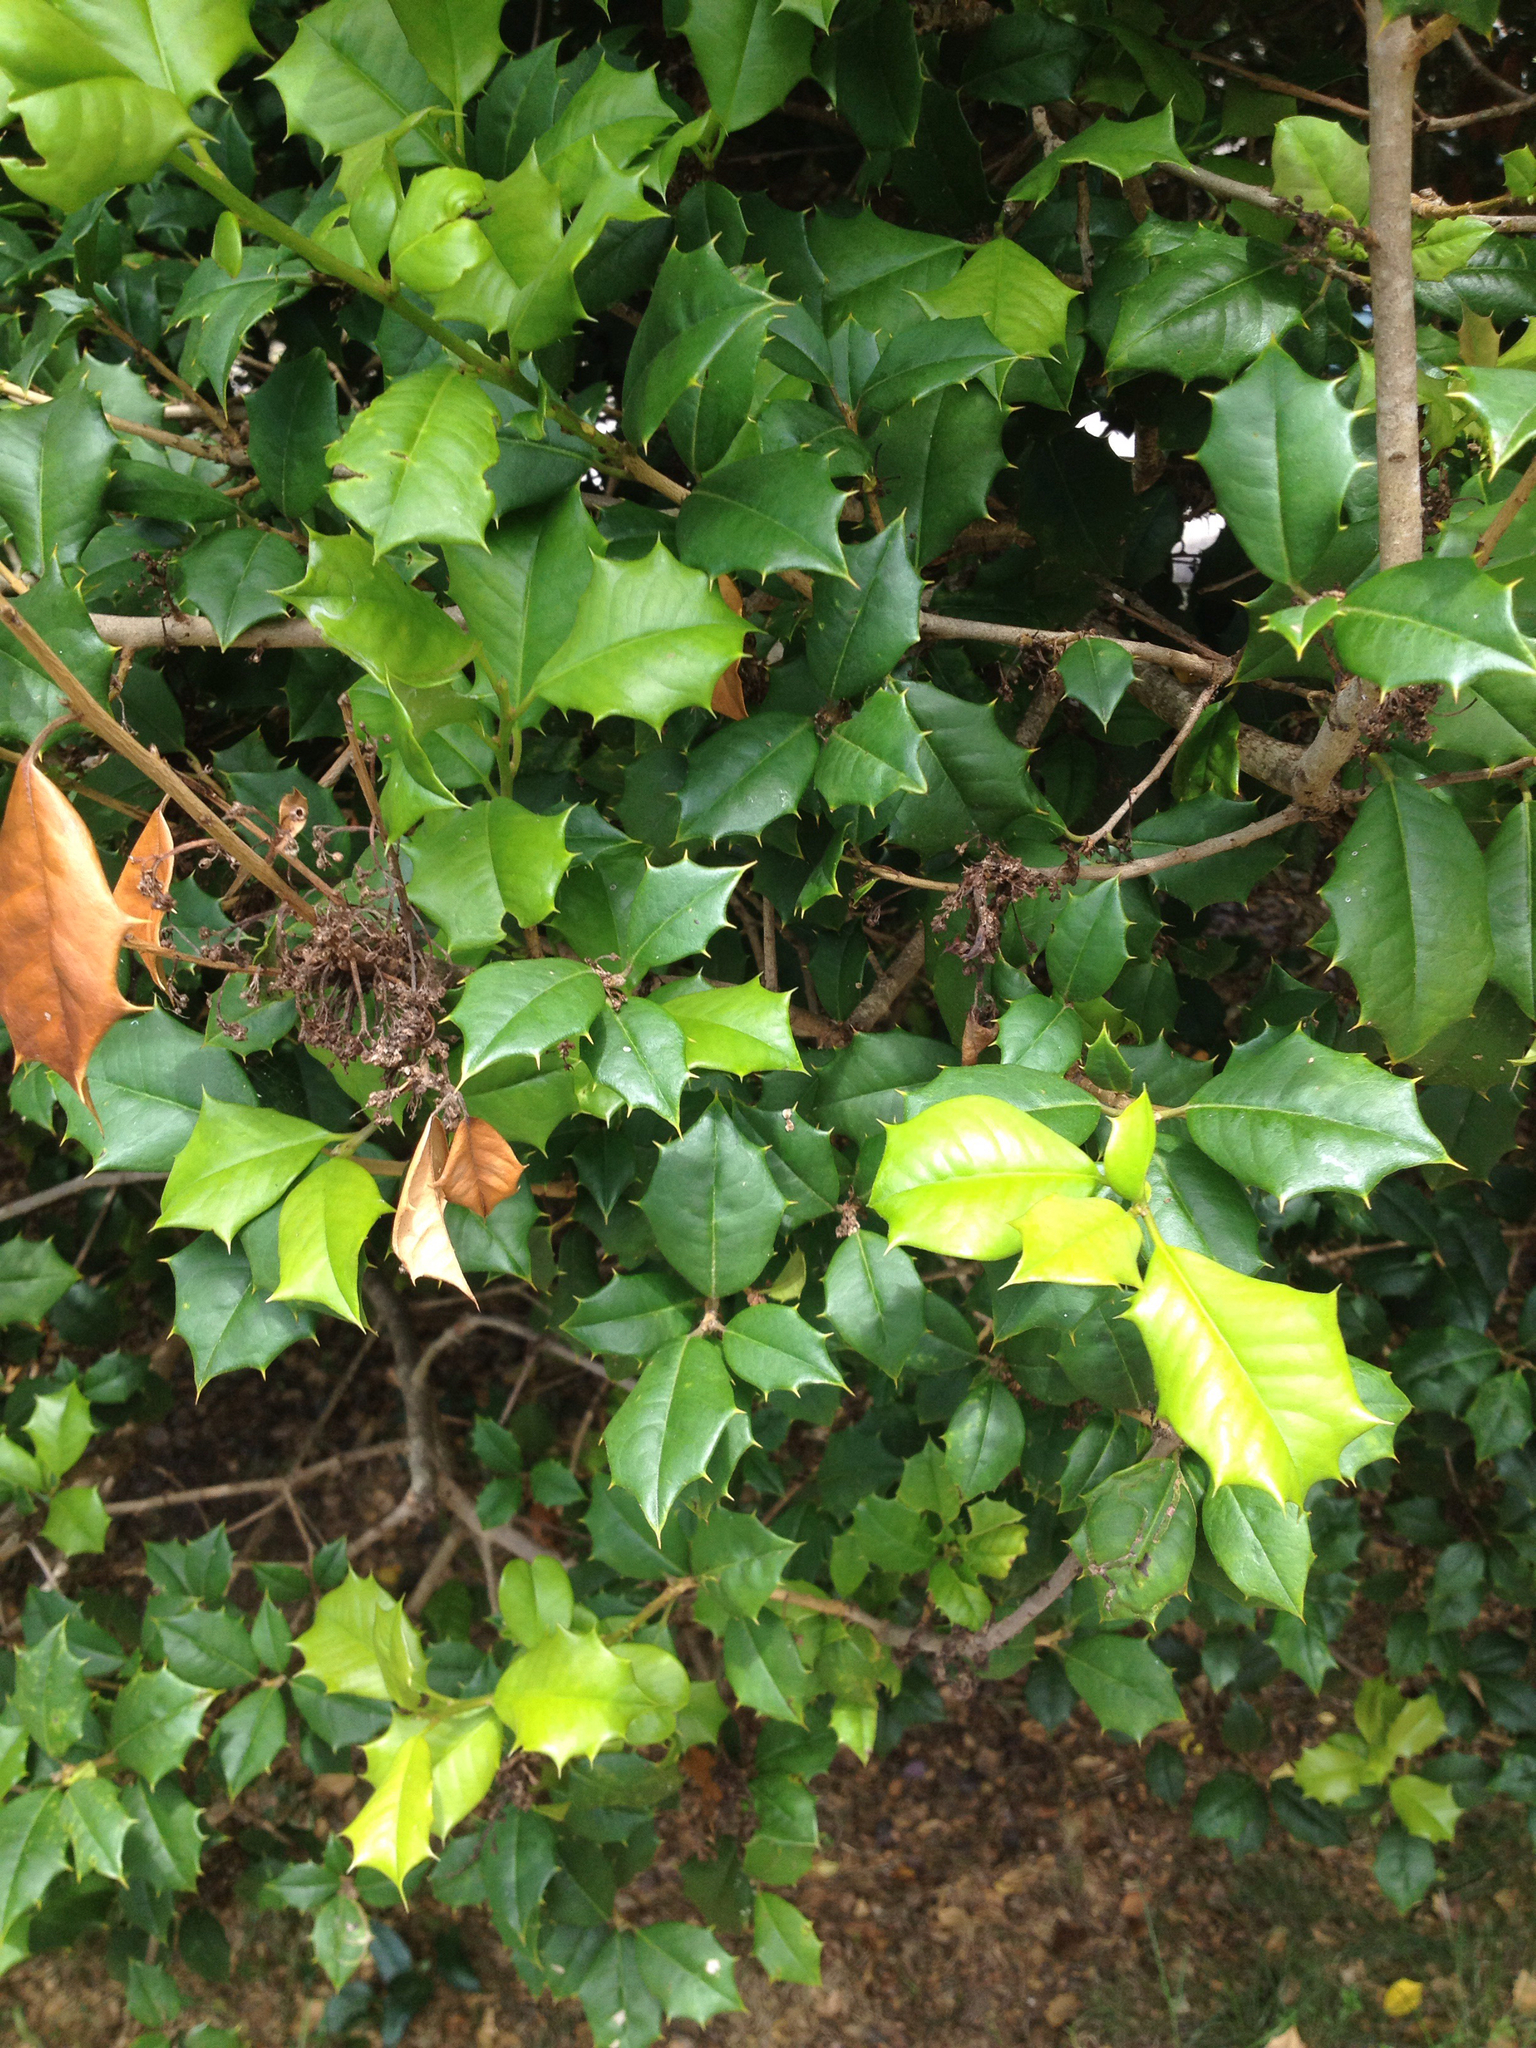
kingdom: Plantae
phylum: Tracheophyta
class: Magnoliopsida
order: Aquifoliales
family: Aquifoliaceae
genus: Ilex
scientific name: Ilex opaca
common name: American holly
